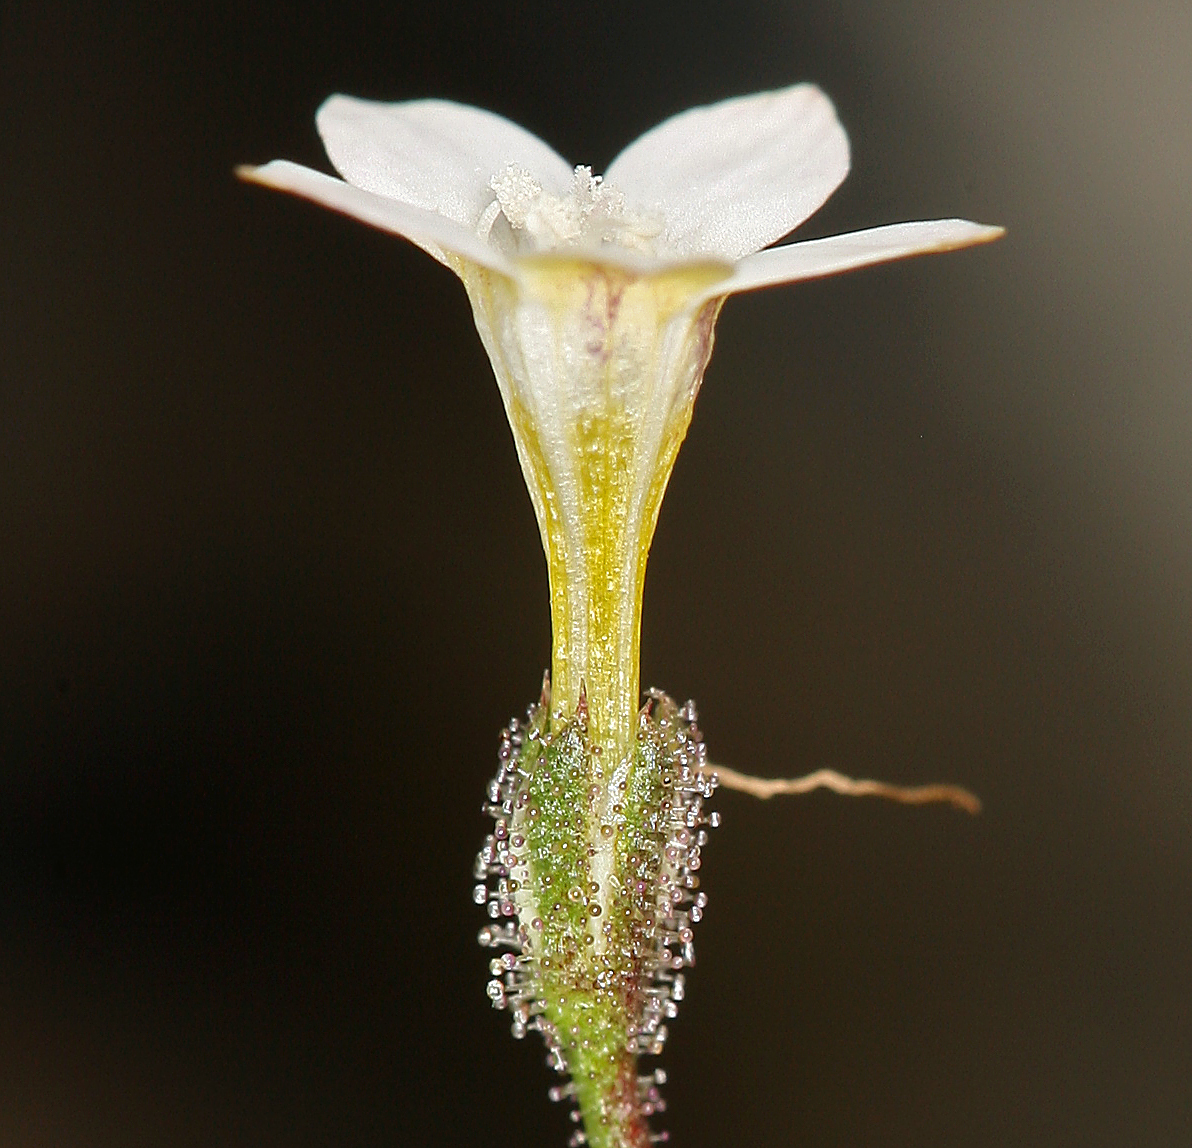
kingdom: Plantae
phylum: Tracheophyta
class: Magnoliopsida
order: Ericales
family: Polemoniaceae
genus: Gilia
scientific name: Gilia stellata
